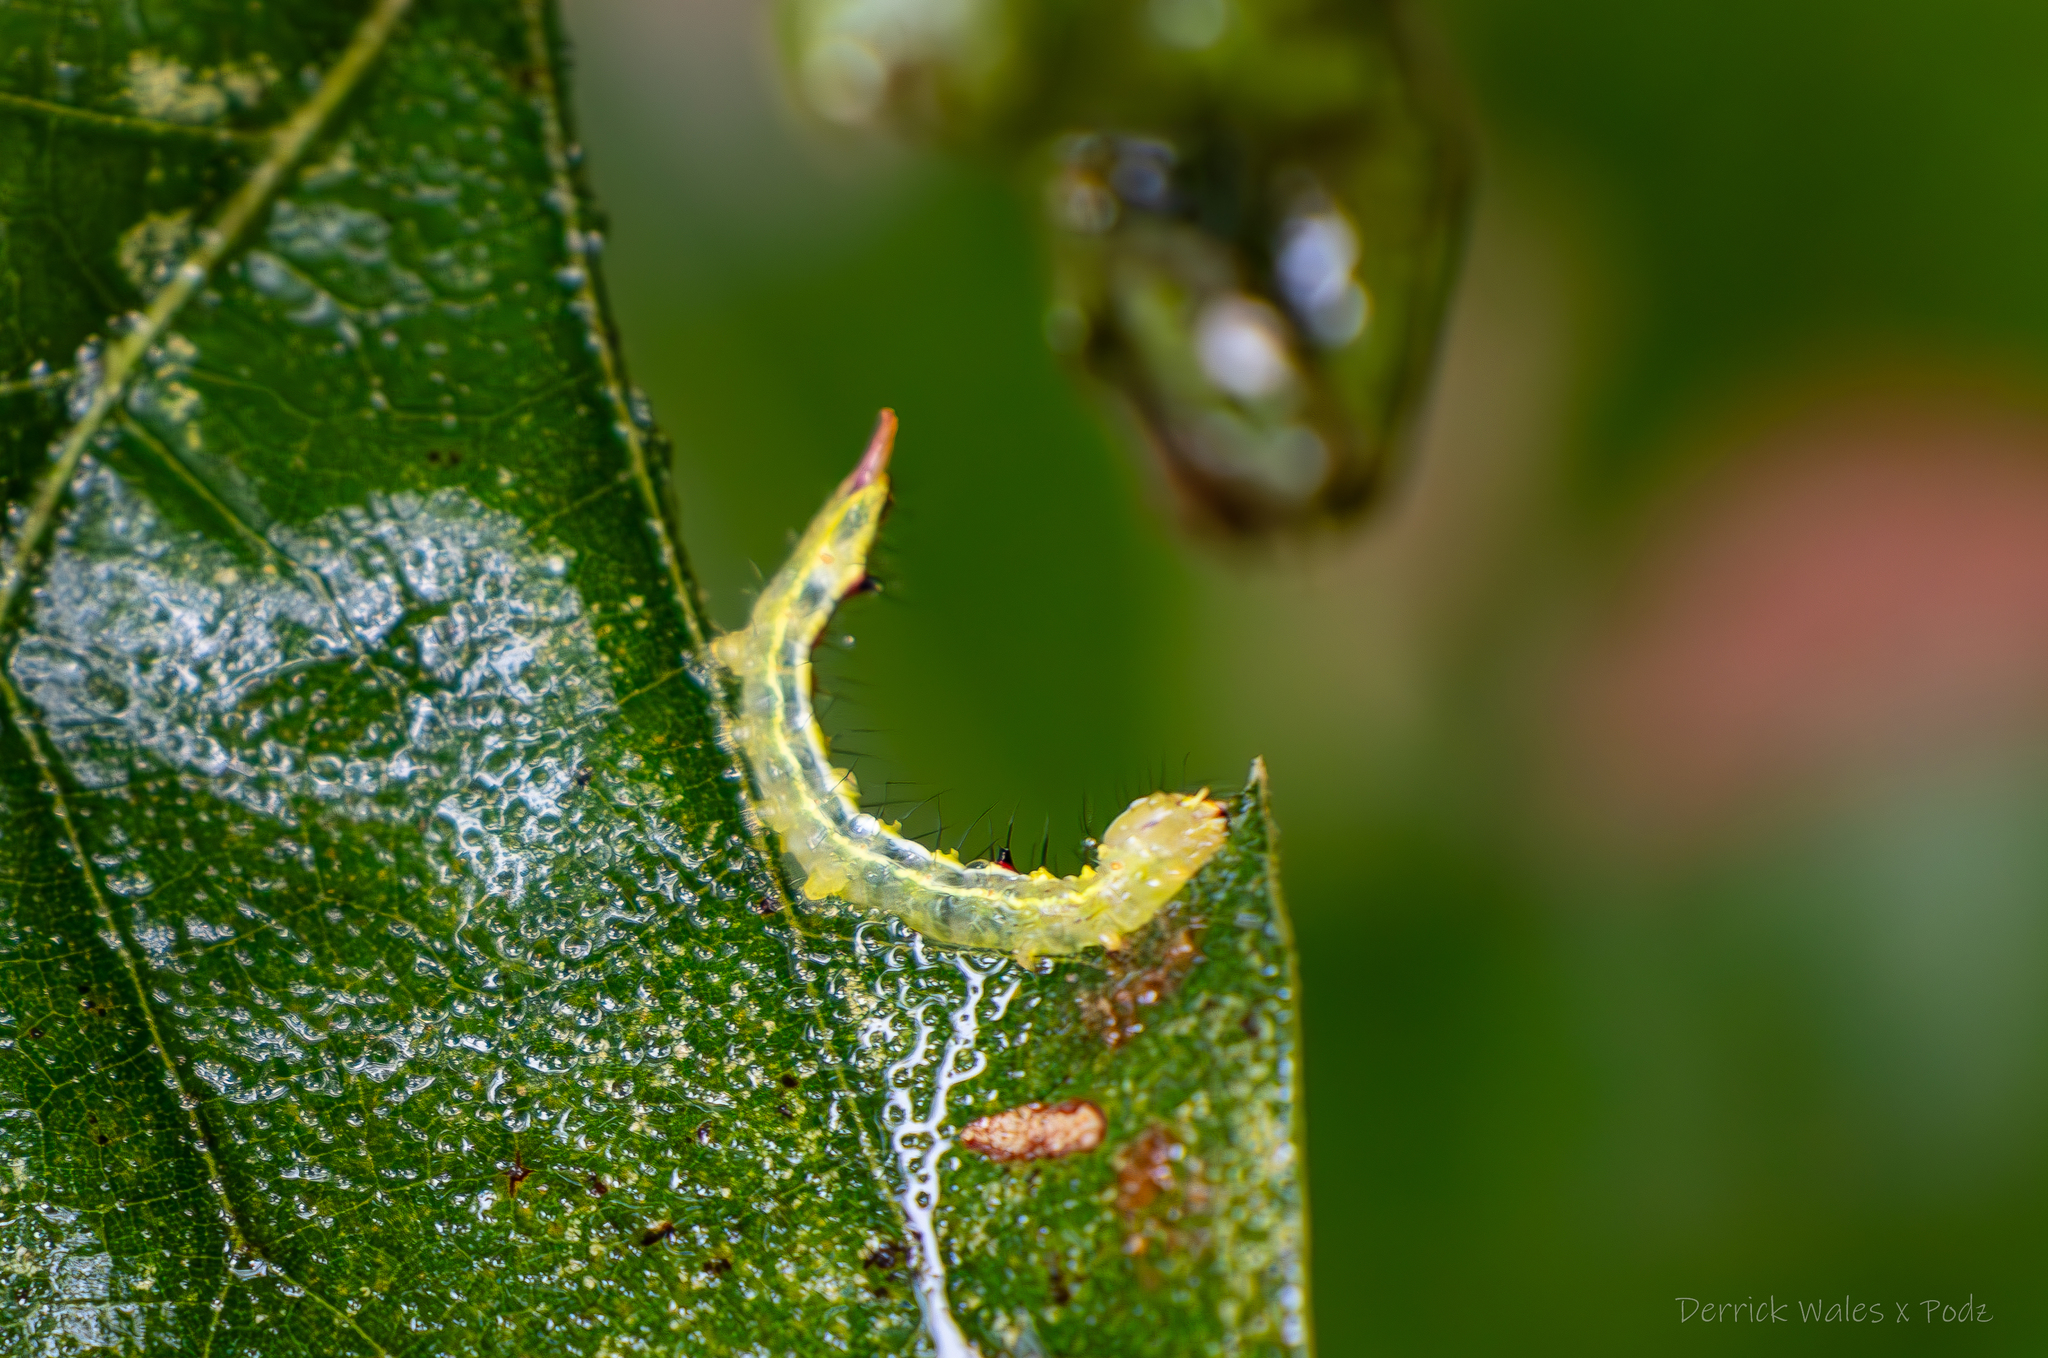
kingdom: Animalia
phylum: Arthropoda
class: Insecta
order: Lepidoptera
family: Notodontidae
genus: Lochmaeus
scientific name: Lochmaeus manteo
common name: Variable oakleaf caterpillar moth
